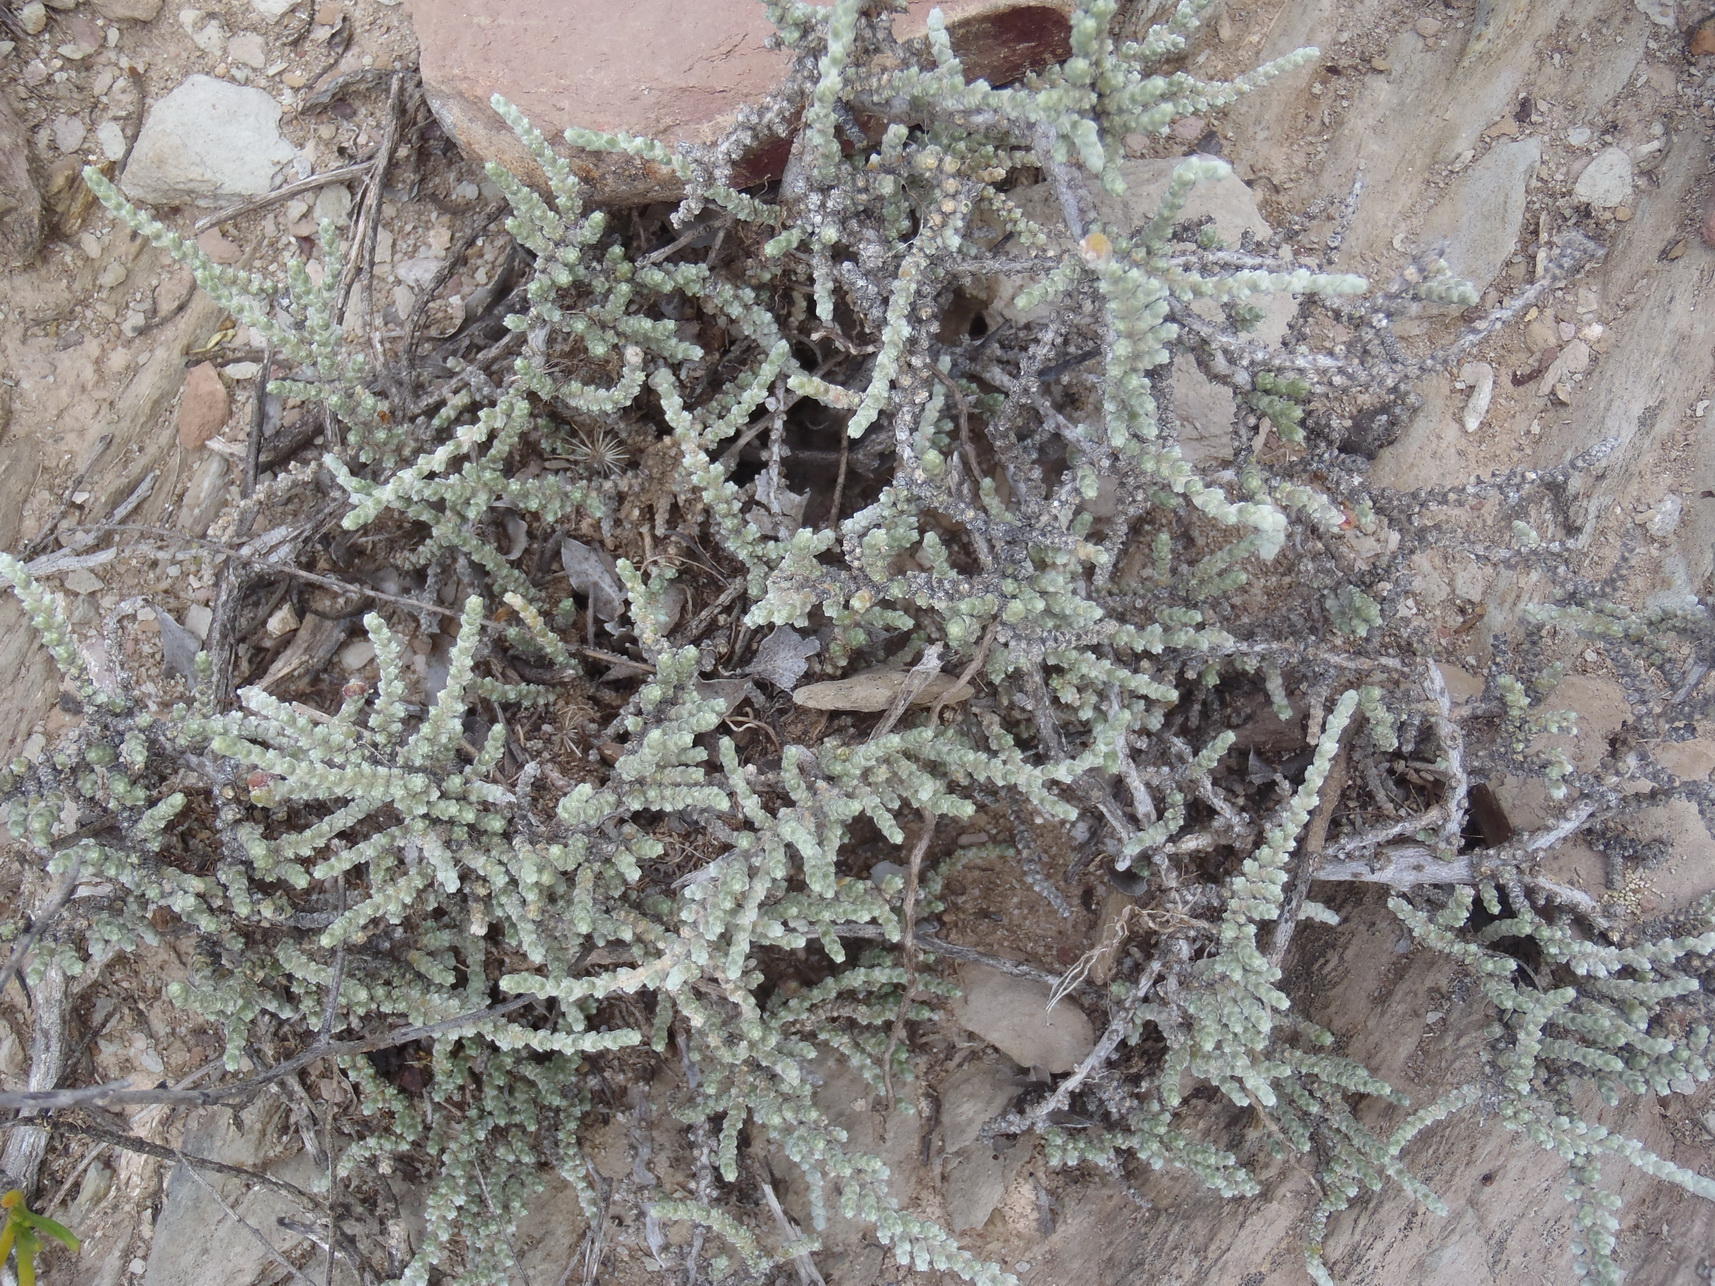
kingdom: Plantae
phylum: Tracheophyta
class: Magnoliopsida
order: Caryophyllales
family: Amaranthaceae
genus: Caroxylon
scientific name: Caroxylon aphyllum
